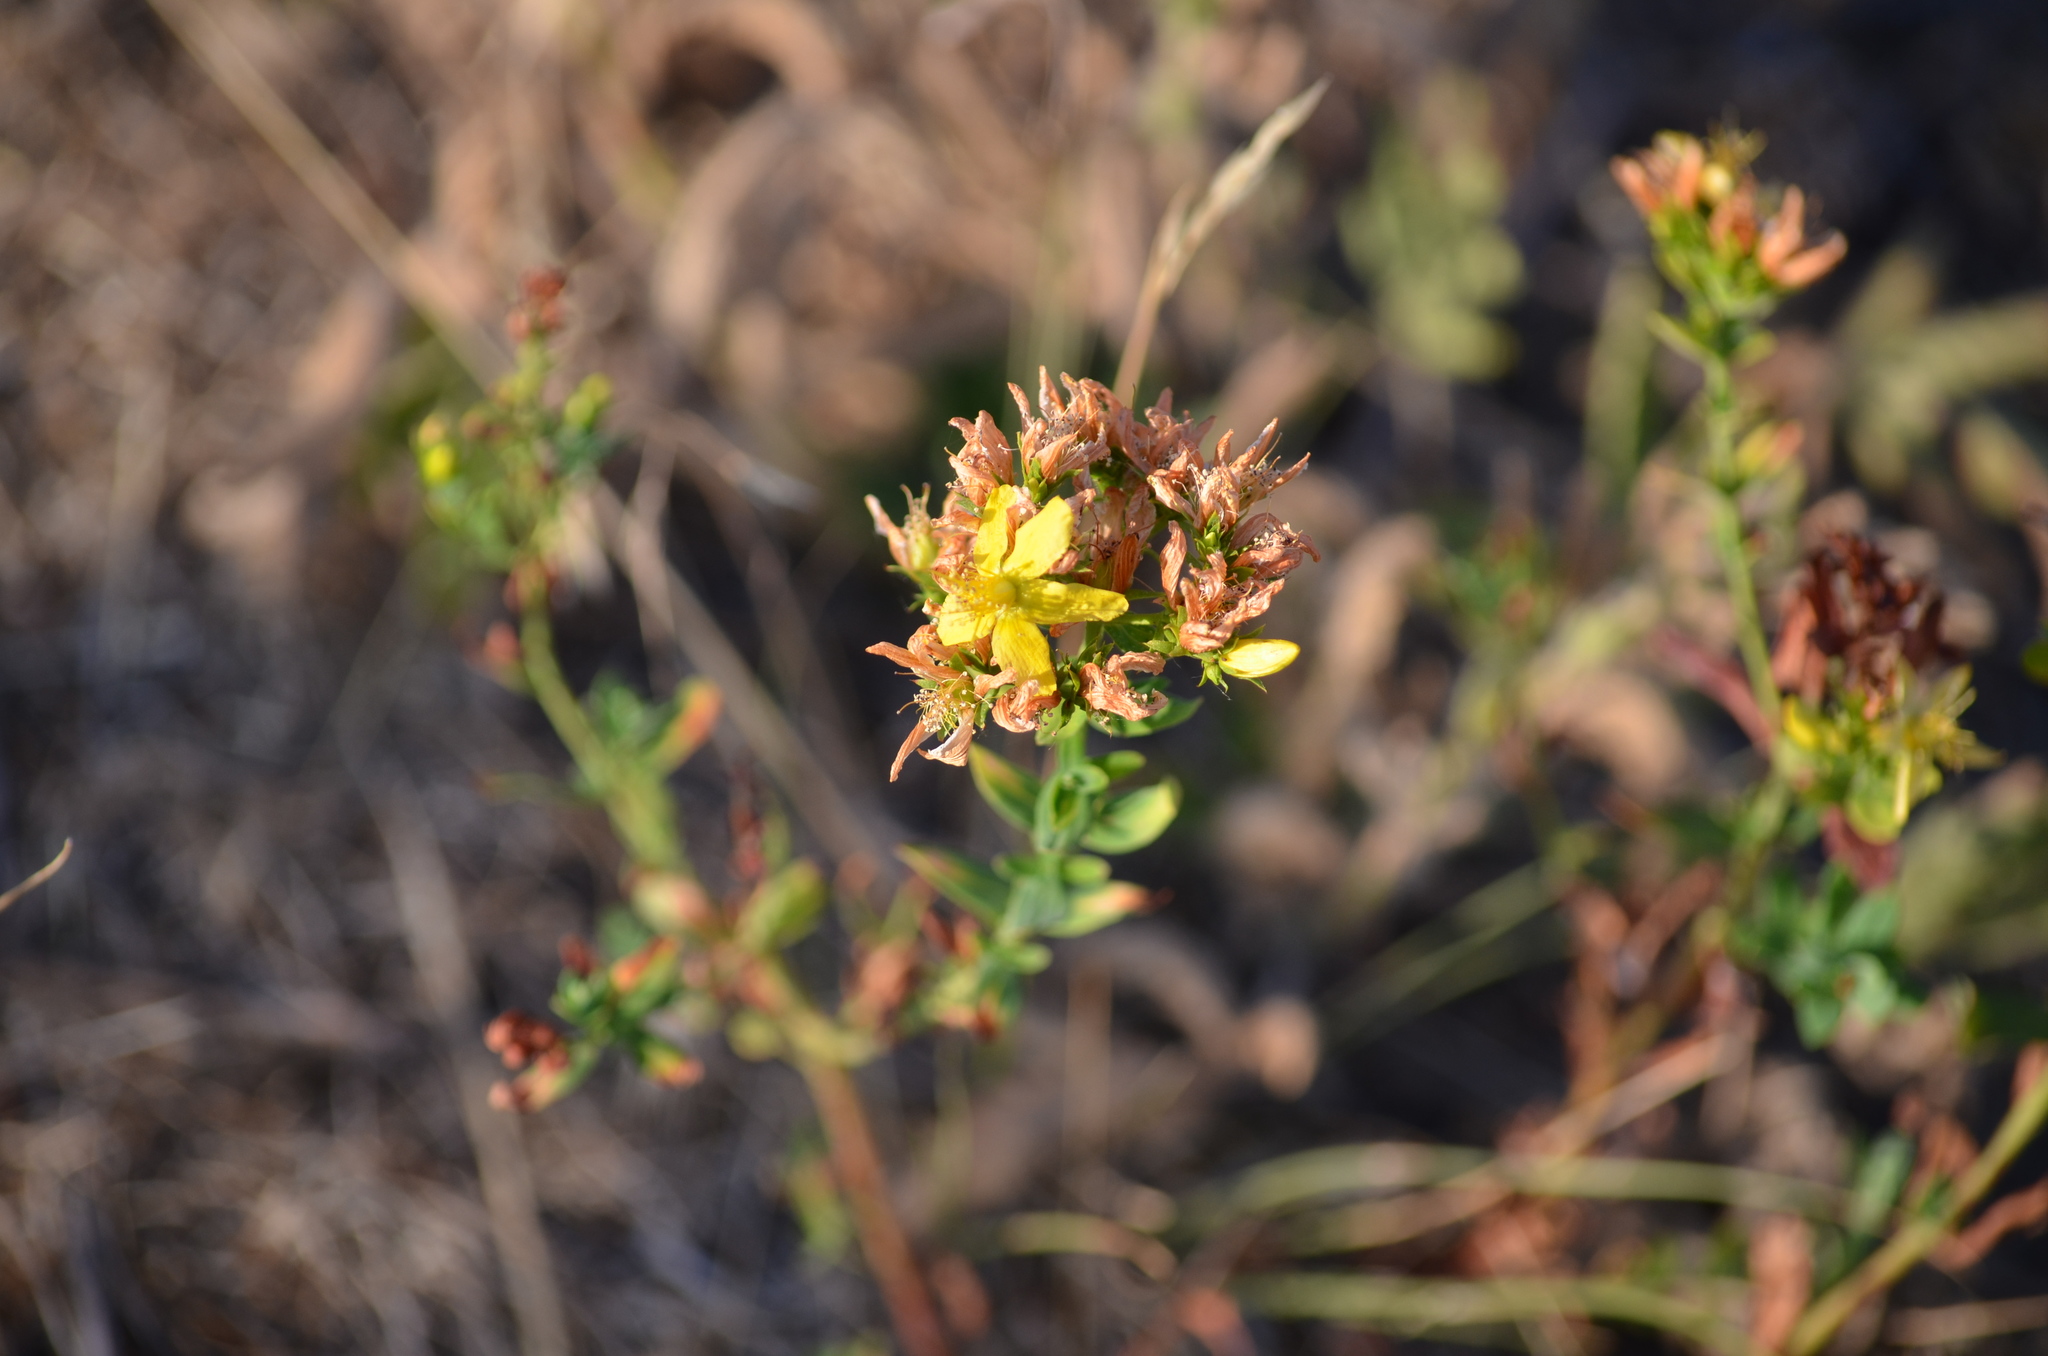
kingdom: Plantae
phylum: Tracheophyta
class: Magnoliopsida
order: Malpighiales
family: Hypericaceae
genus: Hypericum
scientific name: Hypericum perforatum
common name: Common st. johnswort
